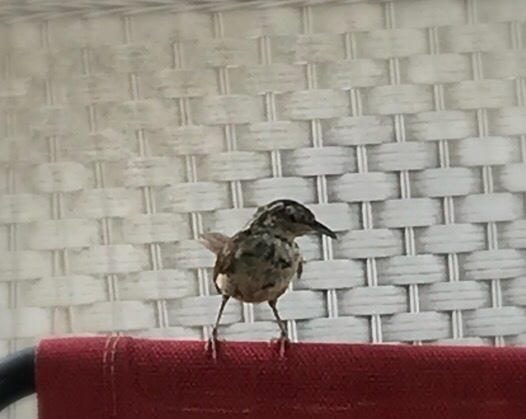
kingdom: Animalia
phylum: Chordata
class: Aves
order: Passeriformes
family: Troglodytidae
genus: Thryothorus
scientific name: Thryothorus ludovicianus
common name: Carolina wren
